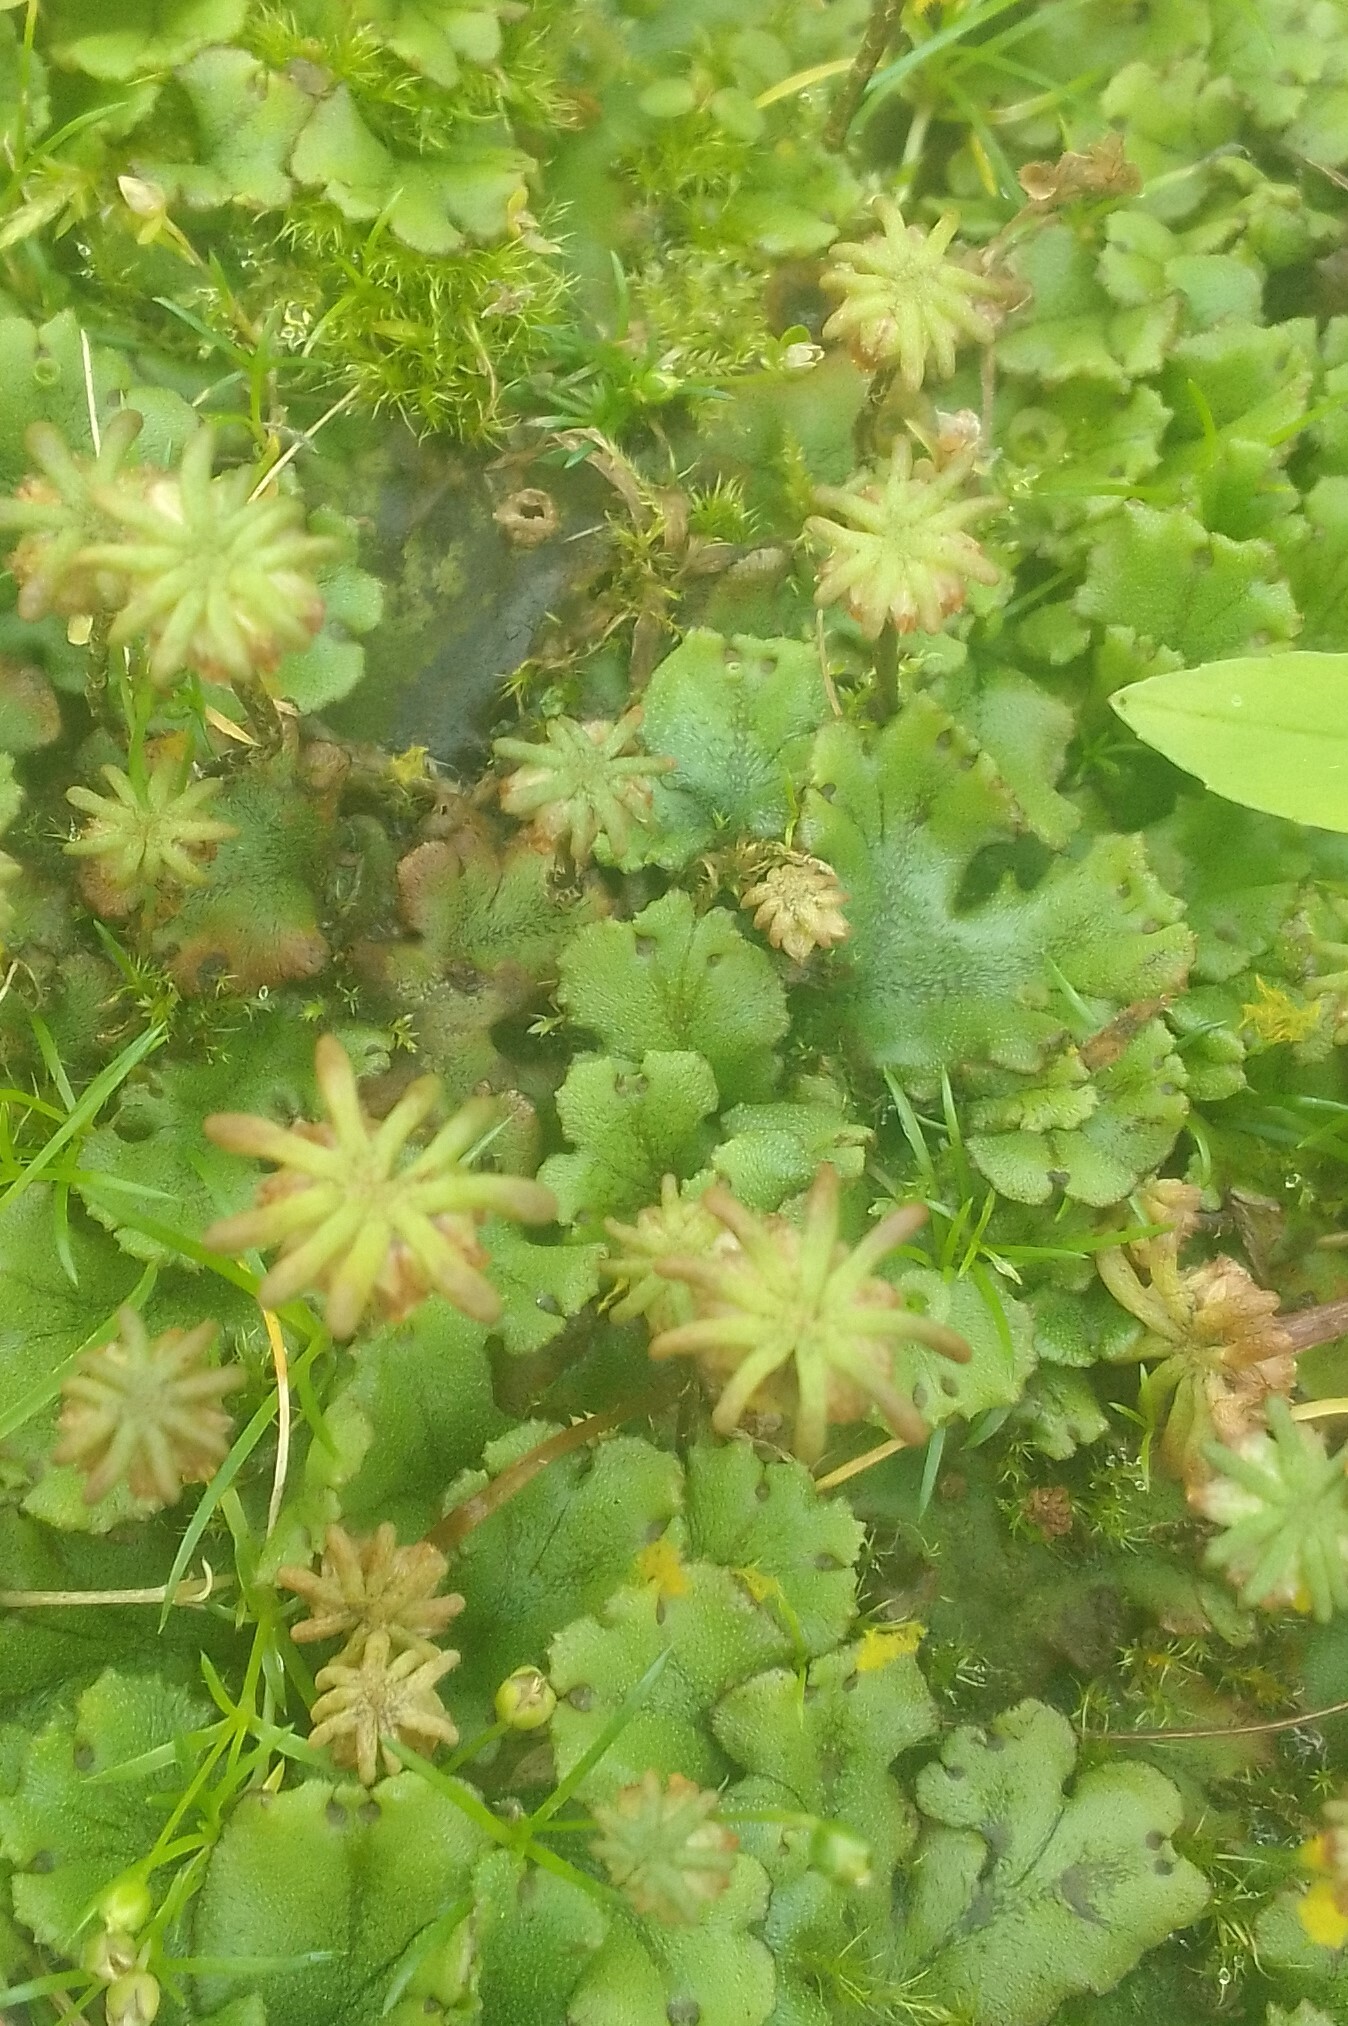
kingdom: Plantae
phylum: Marchantiophyta
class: Marchantiopsida
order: Marchantiales
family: Marchantiaceae
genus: Marchantia
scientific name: Marchantia polymorpha
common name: Common liverwort
